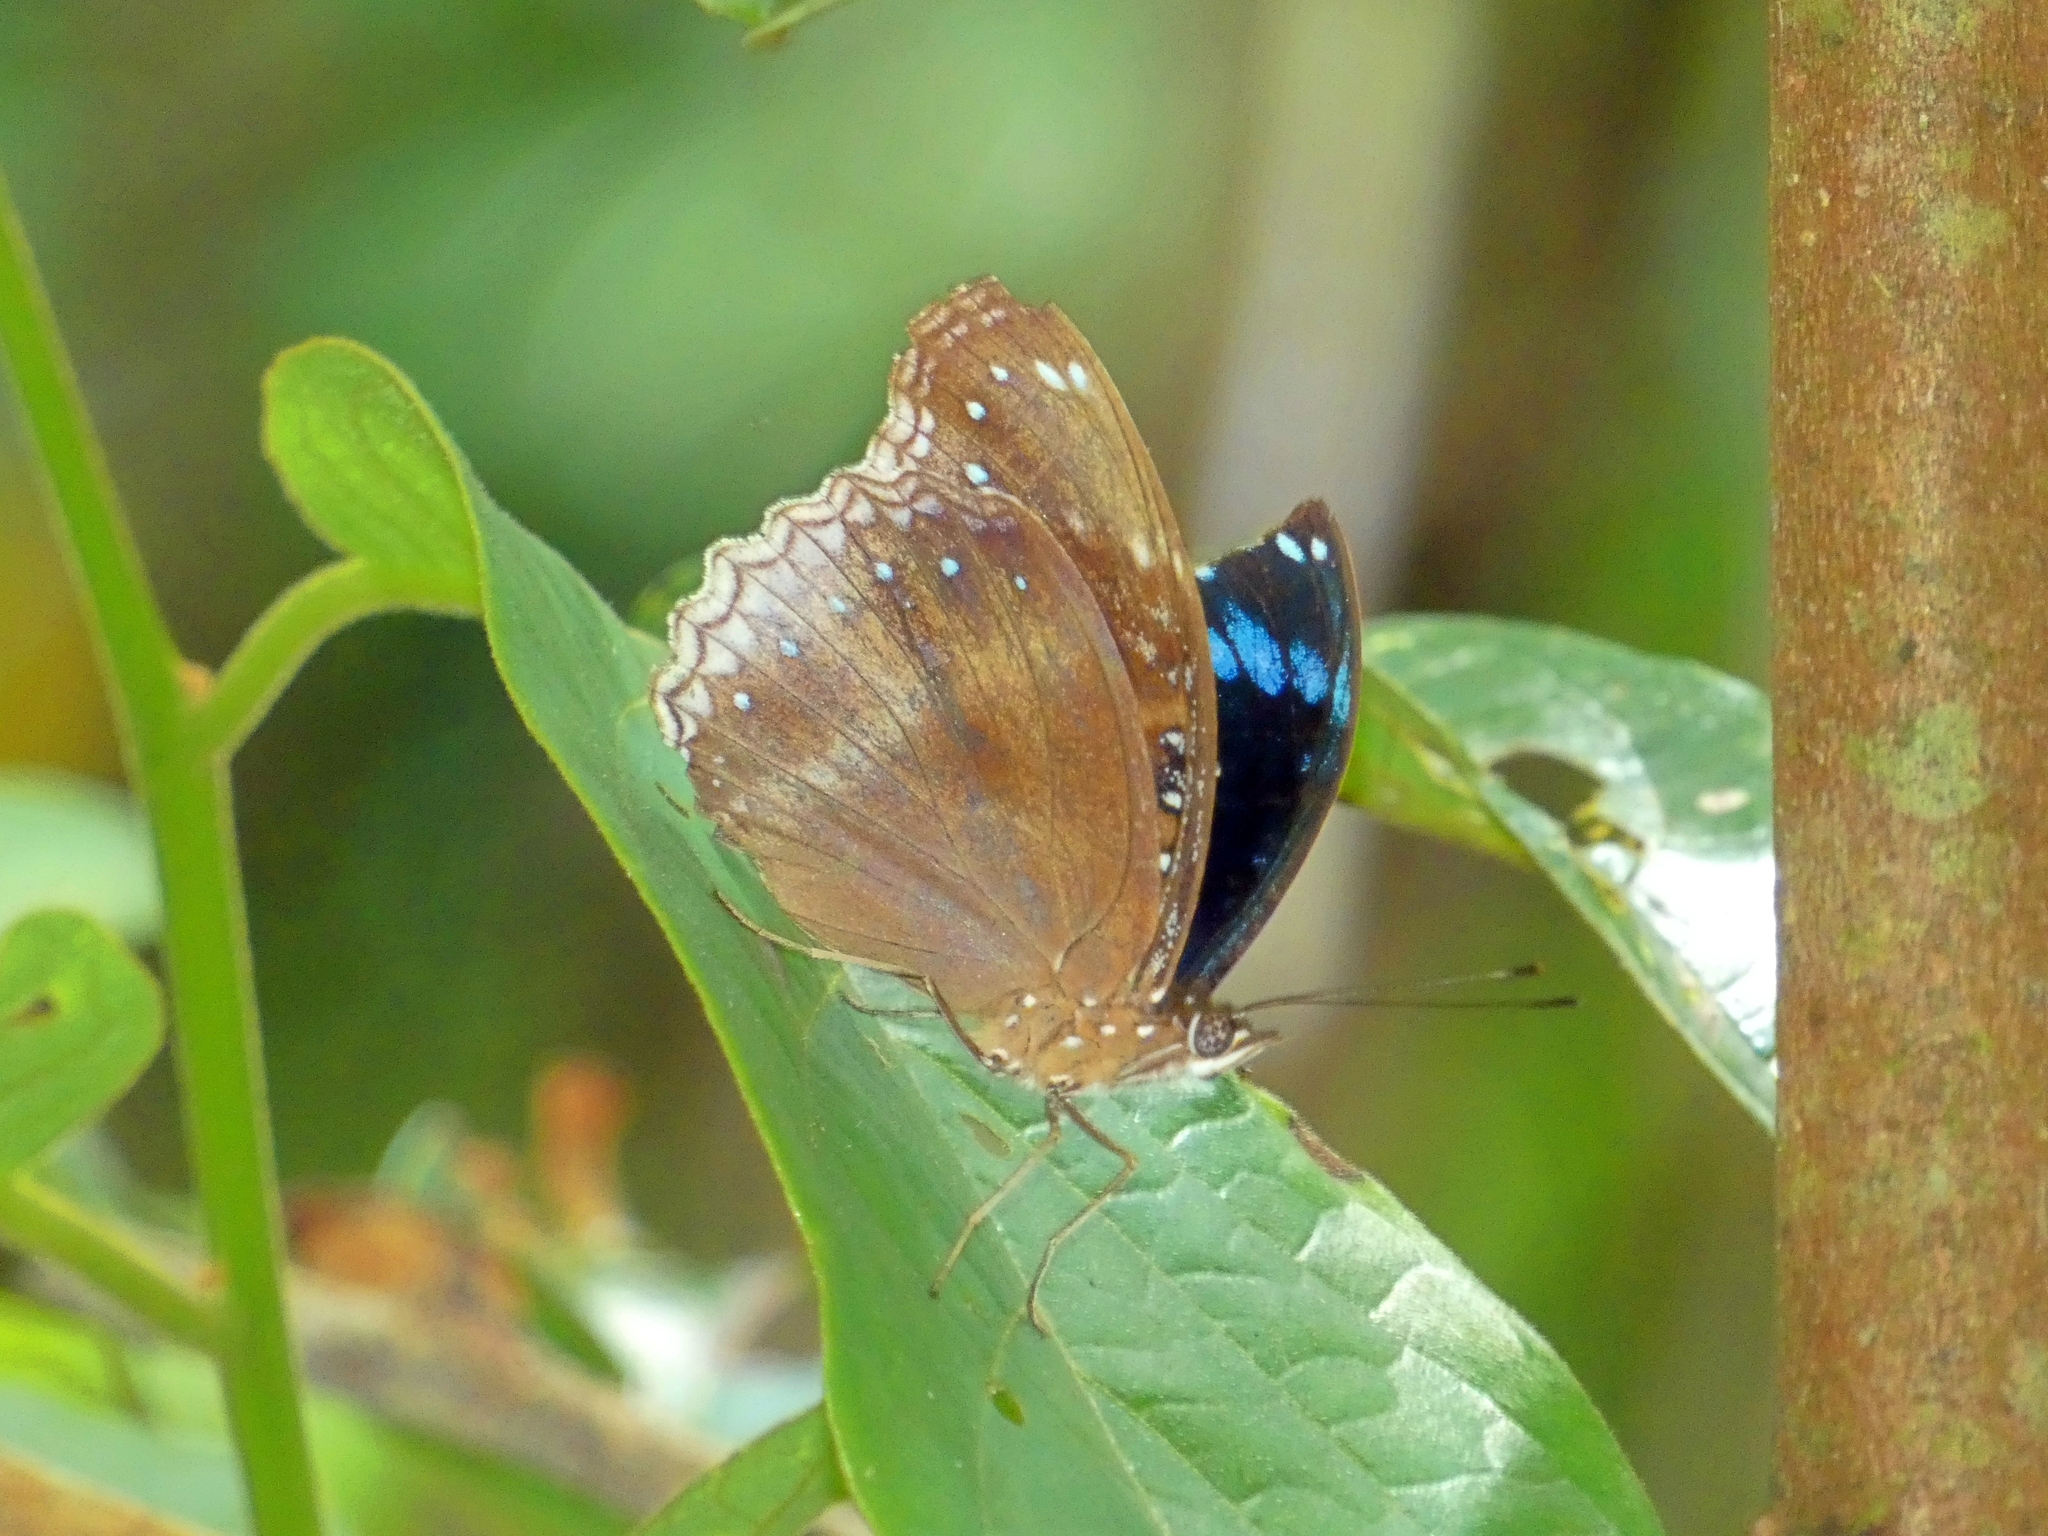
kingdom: Animalia
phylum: Arthropoda
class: Insecta
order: Lepidoptera
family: Nymphalidae
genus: Hypolimnas
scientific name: Hypolimnas alimena
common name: Blue-banded eggfly
